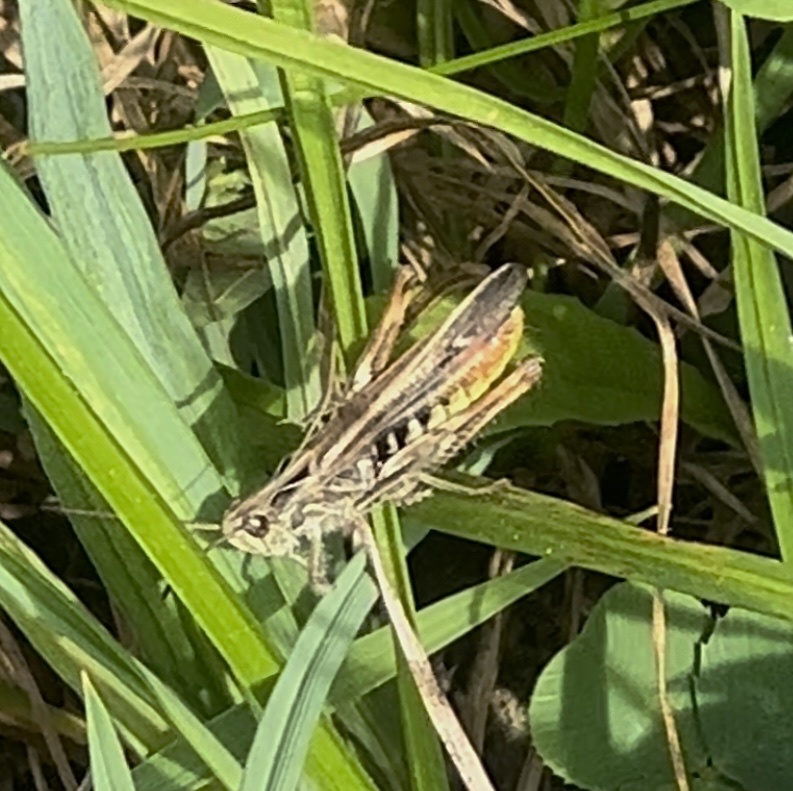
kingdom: Animalia
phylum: Arthropoda
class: Insecta
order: Orthoptera
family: Acrididae
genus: Chorthippus
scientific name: Chorthippus biguttulus
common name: Bow-winged grasshopper
